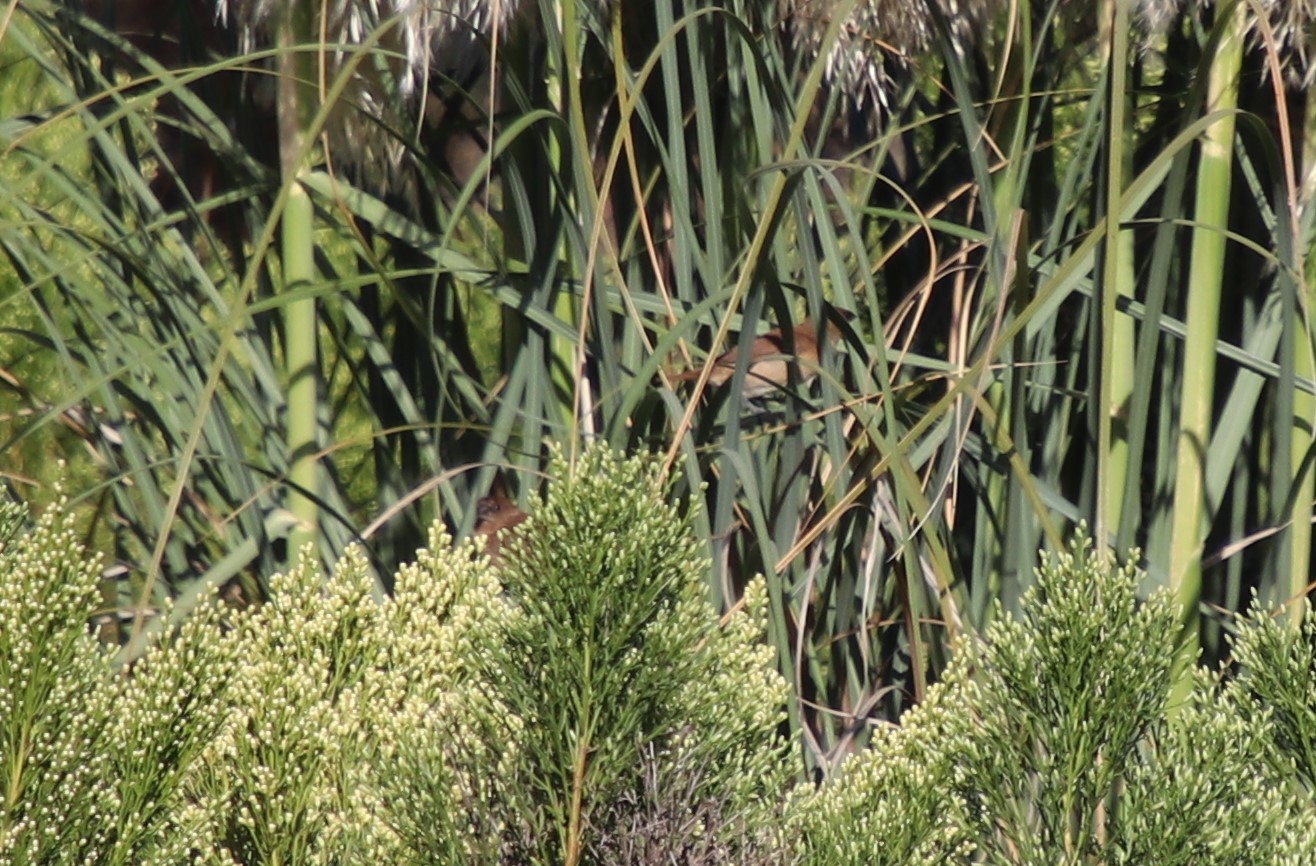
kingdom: Animalia
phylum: Chordata
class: Aves
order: Passeriformes
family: Estrildidae
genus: Lonchura
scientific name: Lonchura punctulata
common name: Scaly-breasted munia
